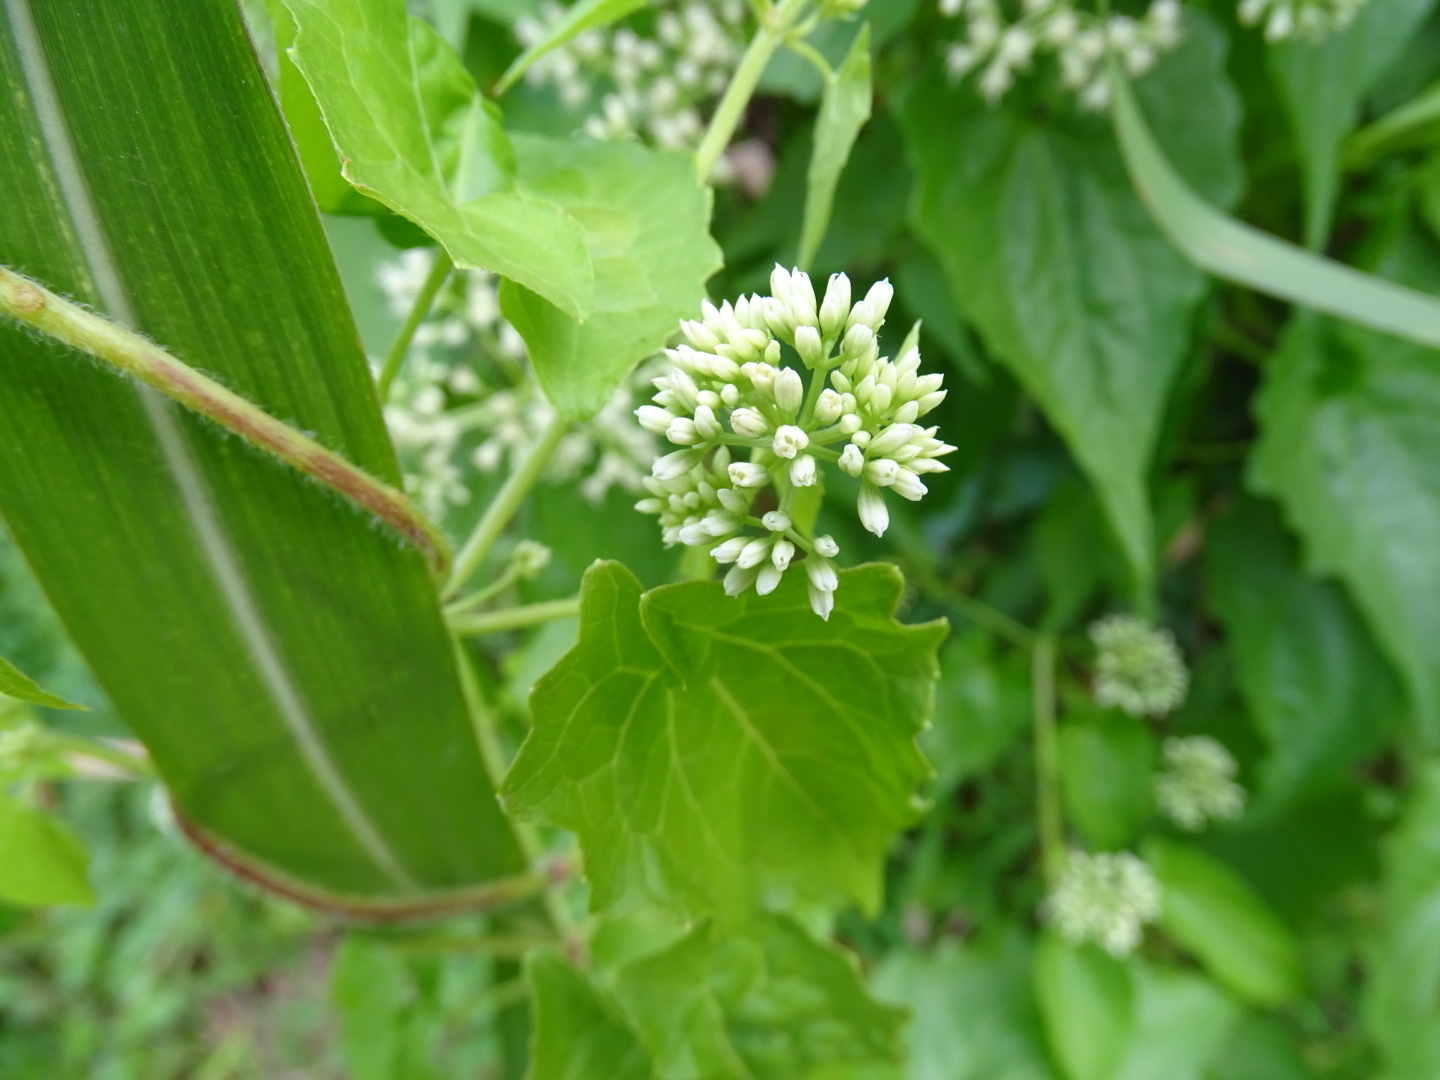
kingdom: Plantae
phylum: Tracheophyta
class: Magnoliopsida
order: Asterales
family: Asteraceae
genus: Mikania
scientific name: Mikania micrantha
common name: Mile-a-minute
